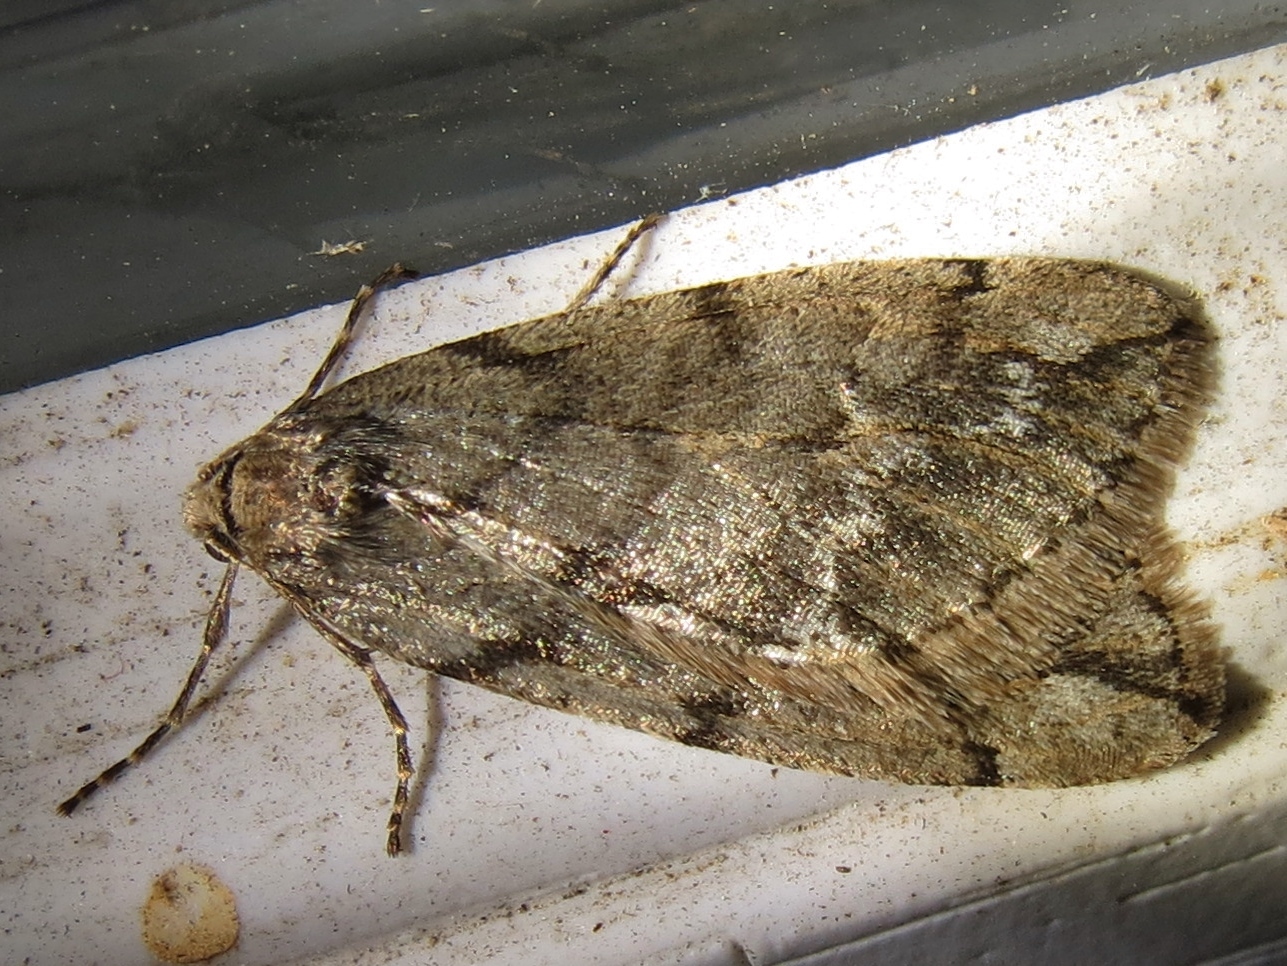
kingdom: Animalia
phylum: Arthropoda
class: Insecta
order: Lepidoptera
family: Geometridae
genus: Paleacrita
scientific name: Paleacrita vernata
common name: Spring cankerworm
